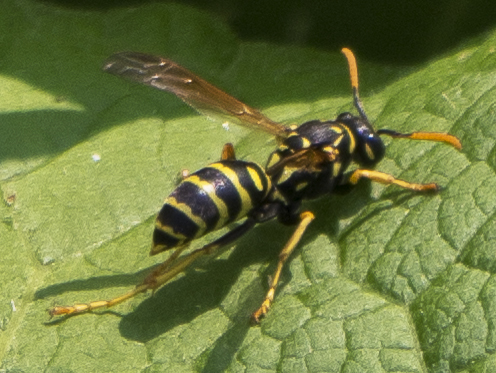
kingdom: Animalia
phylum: Arthropoda
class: Insecta
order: Hymenoptera
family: Eumenidae
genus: Polistes
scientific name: Polistes dominula
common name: Paper wasp
